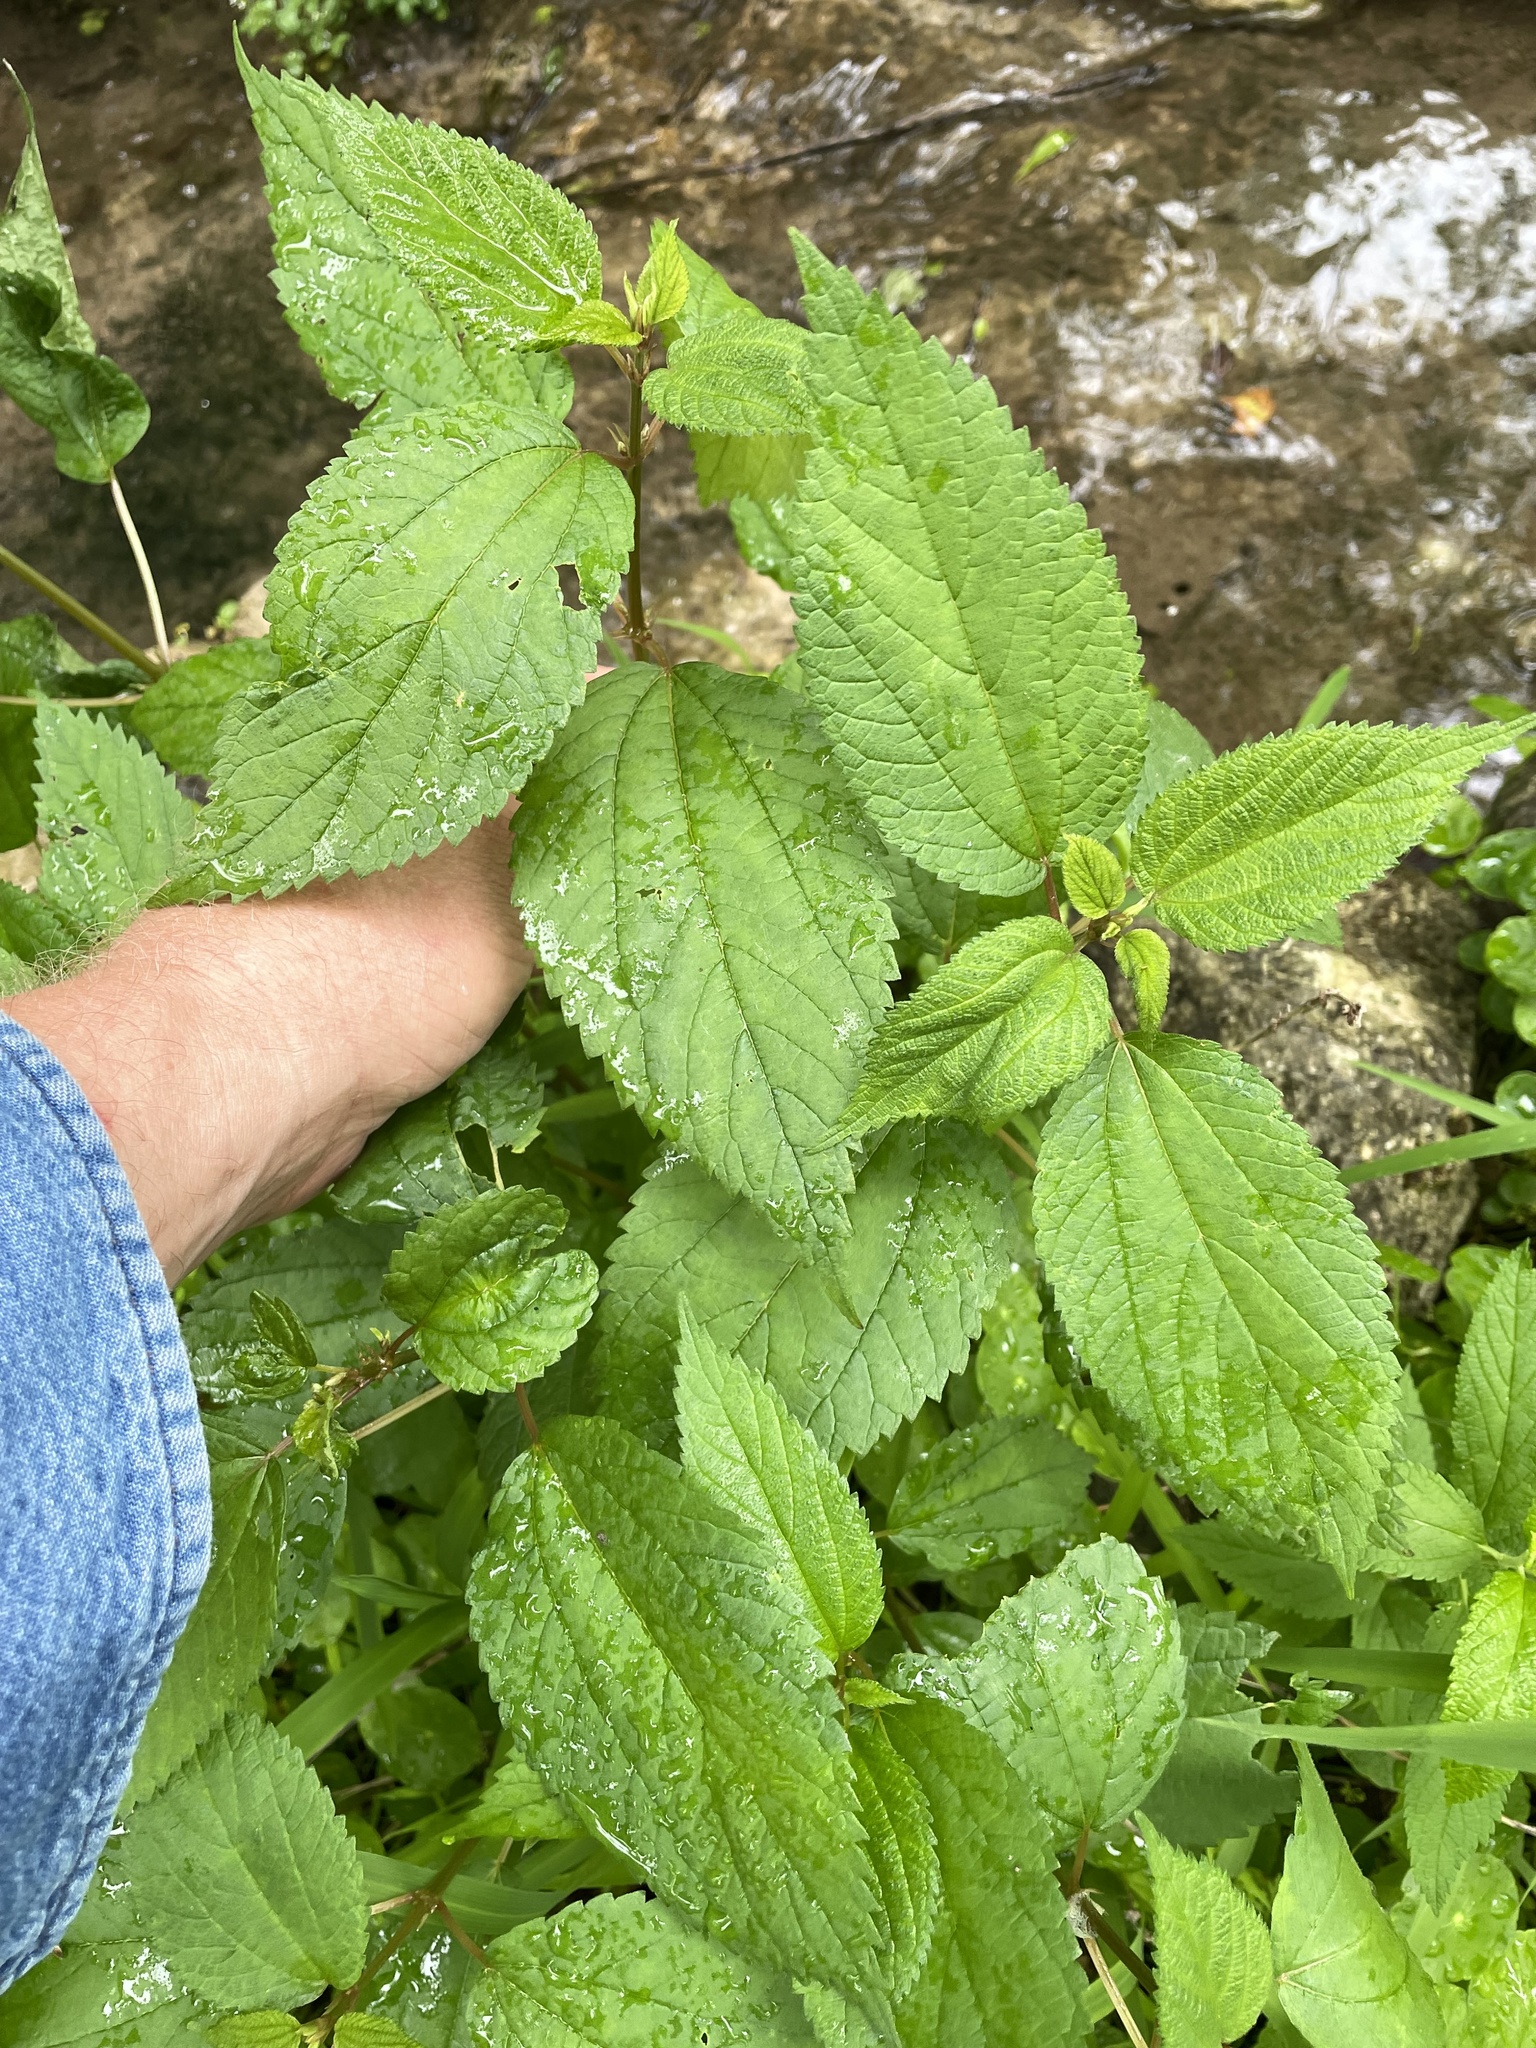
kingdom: Plantae
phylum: Tracheophyta
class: Magnoliopsida
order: Rosales
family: Urticaceae
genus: Boehmeria
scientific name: Boehmeria cylindrica
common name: Bog-hemp
